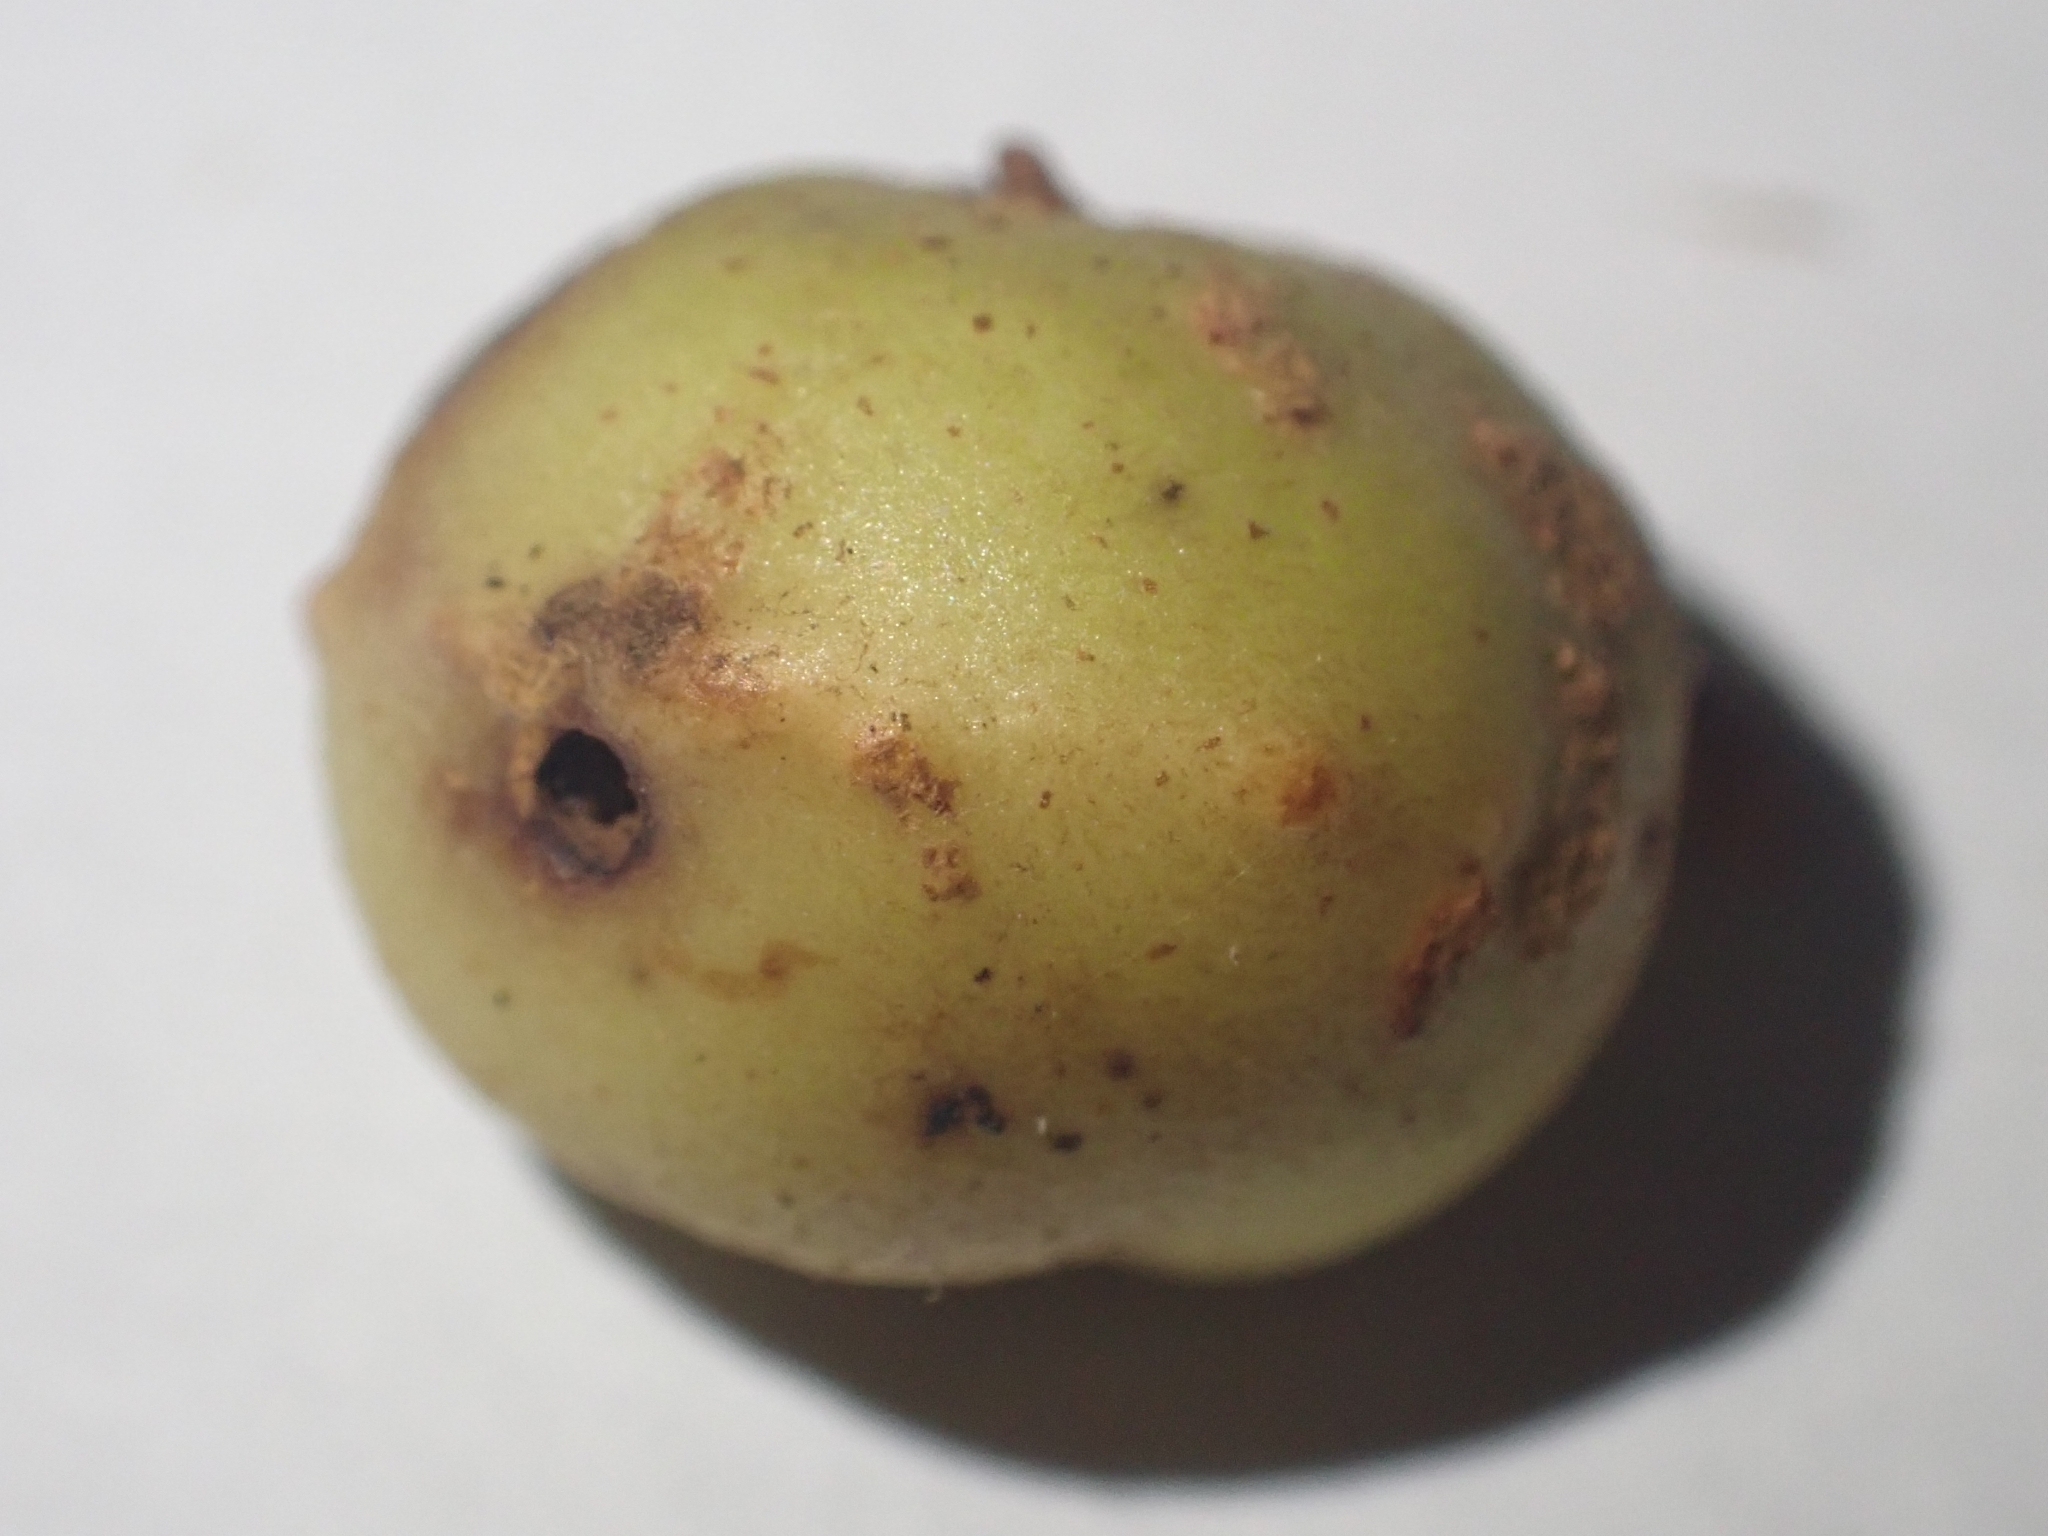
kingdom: Animalia
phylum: Arthropoda
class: Insecta
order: Hymenoptera
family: Cynipidae
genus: Trigonaspis
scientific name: Trigonaspis megaptera
